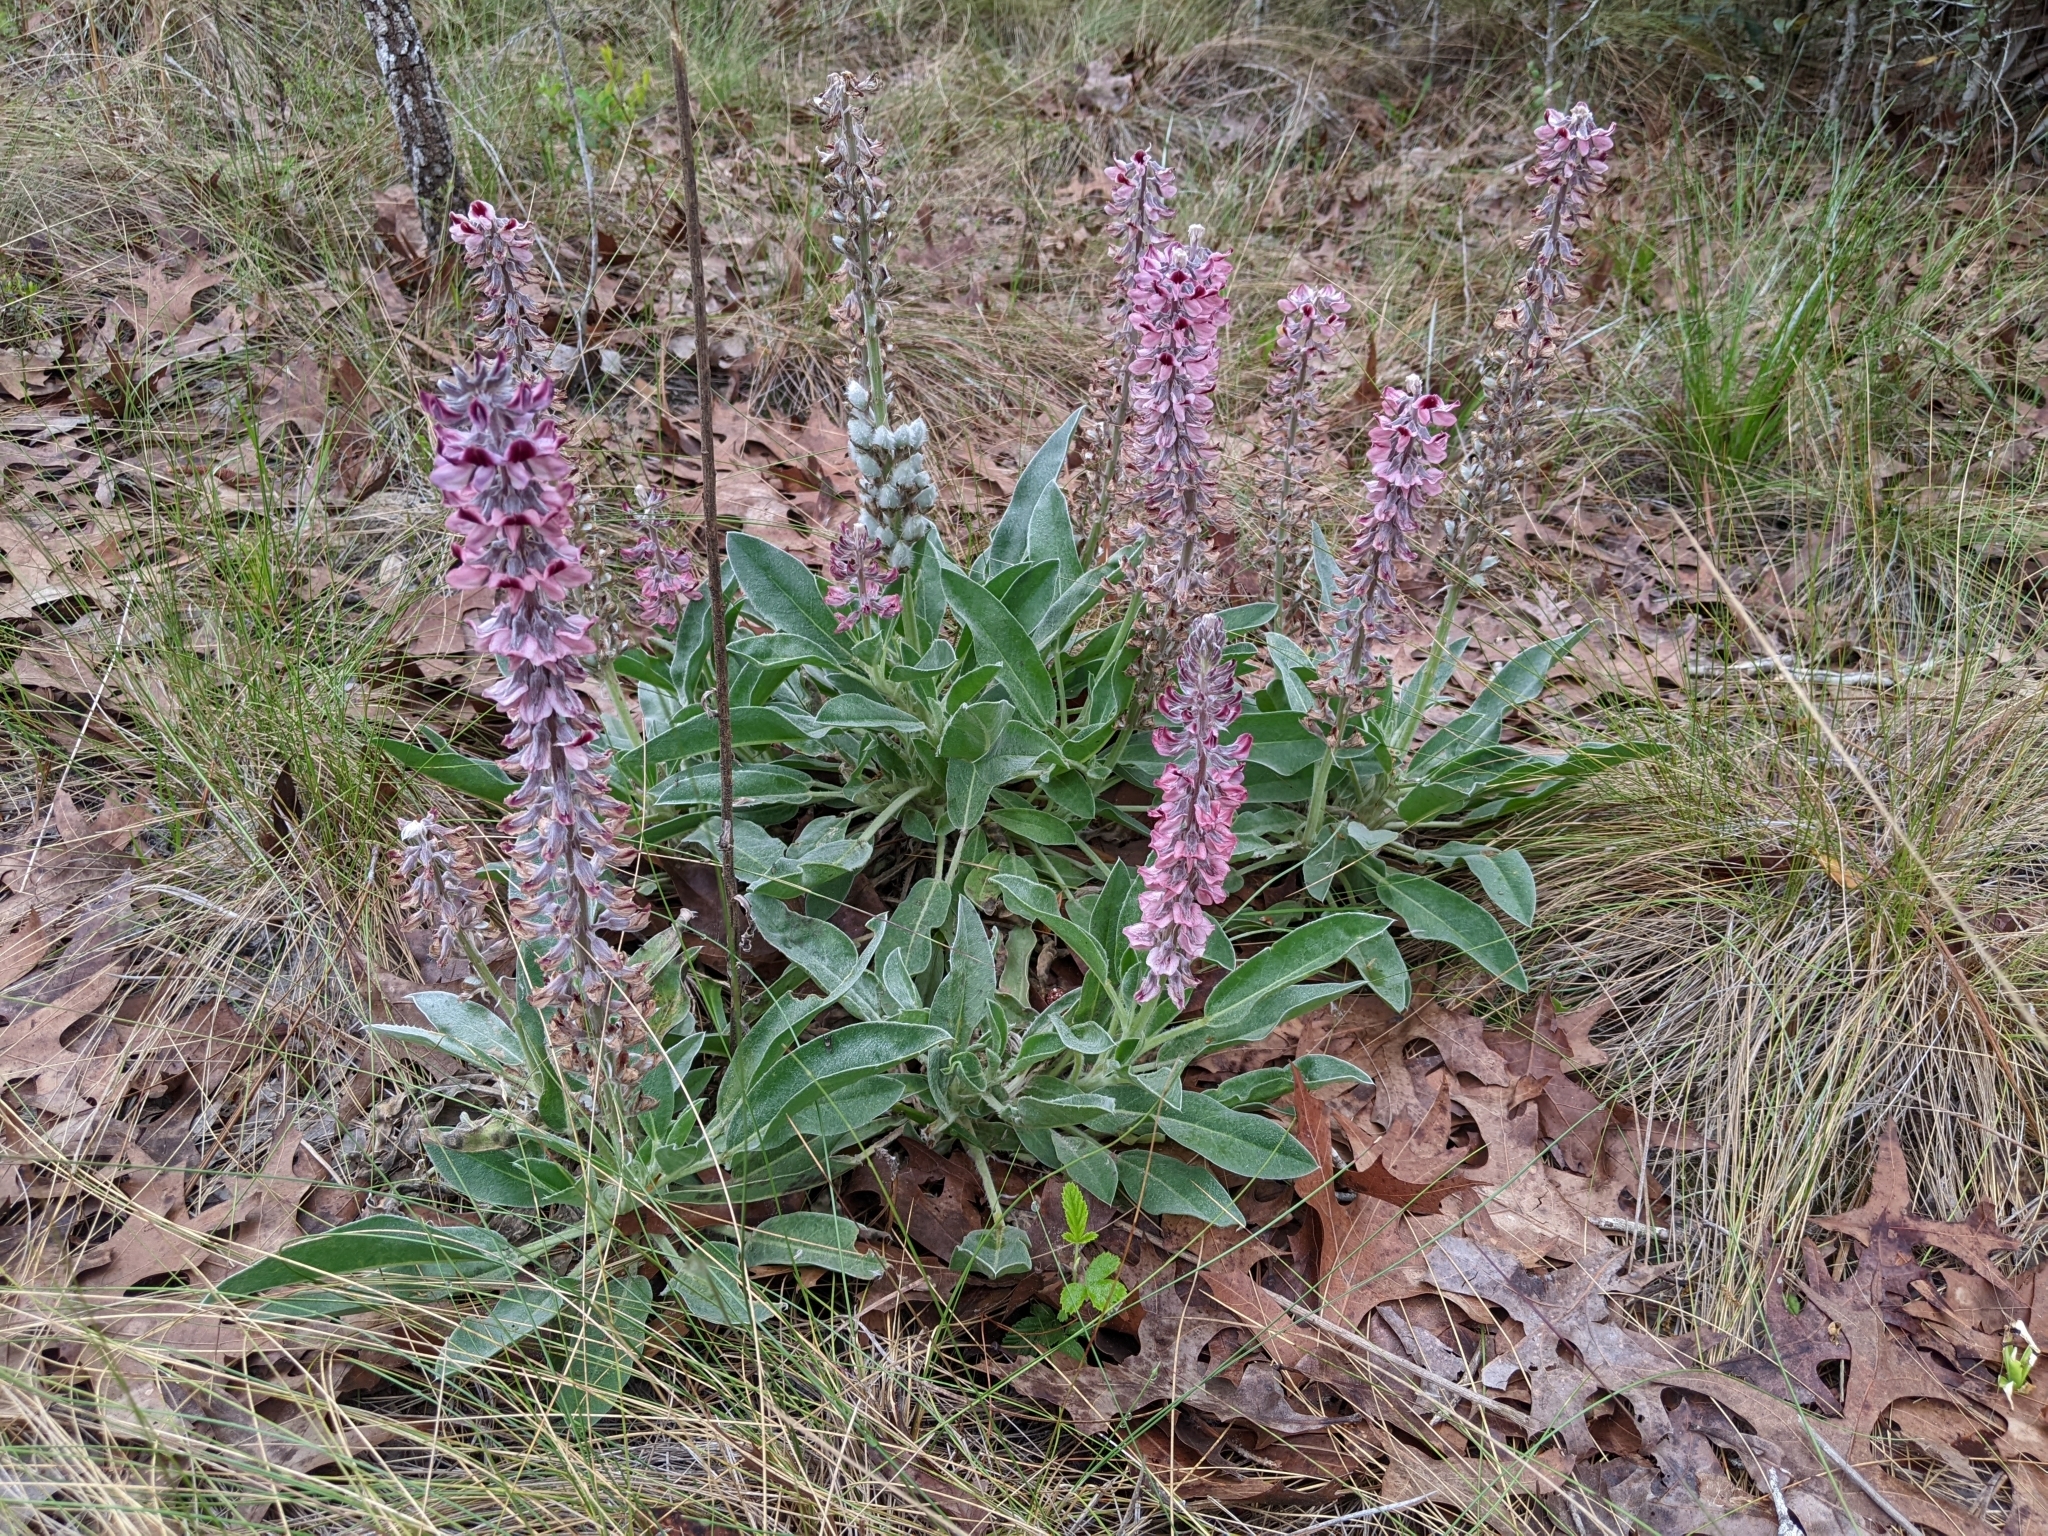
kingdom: Plantae
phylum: Tracheophyta
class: Magnoliopsida
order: Fabales
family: Fabaceae
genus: Lupinus
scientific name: Lupinus villosus
